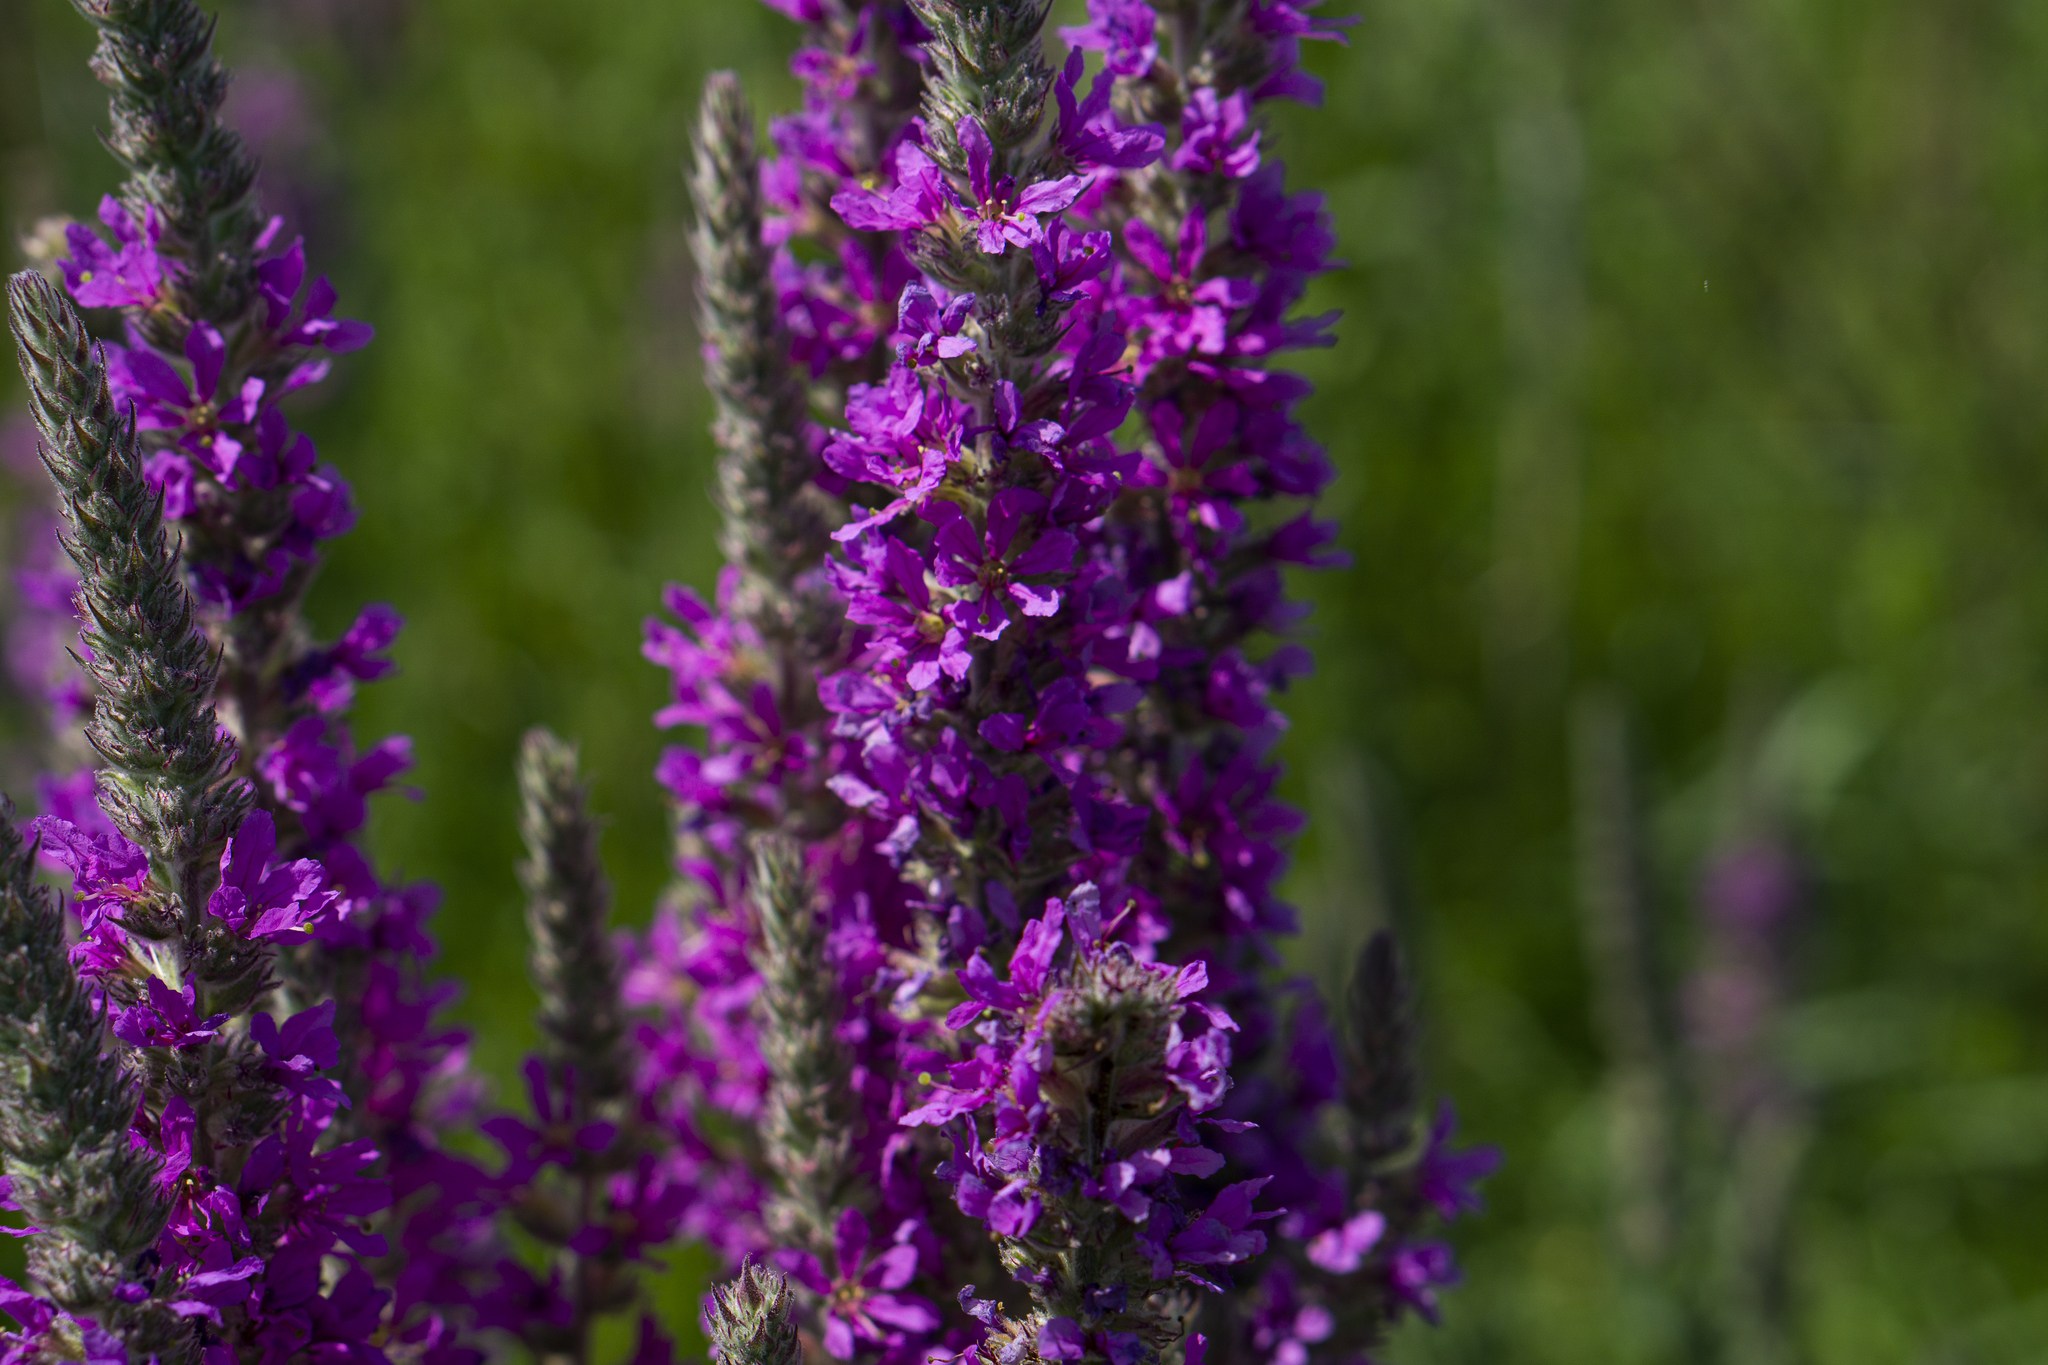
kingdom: Plantae
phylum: Tracheophyta
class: Magnoliopsida
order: Myrtales
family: Lythraceae
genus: Lythrum
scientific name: Lythrum salicaria
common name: Purple loosestrife
